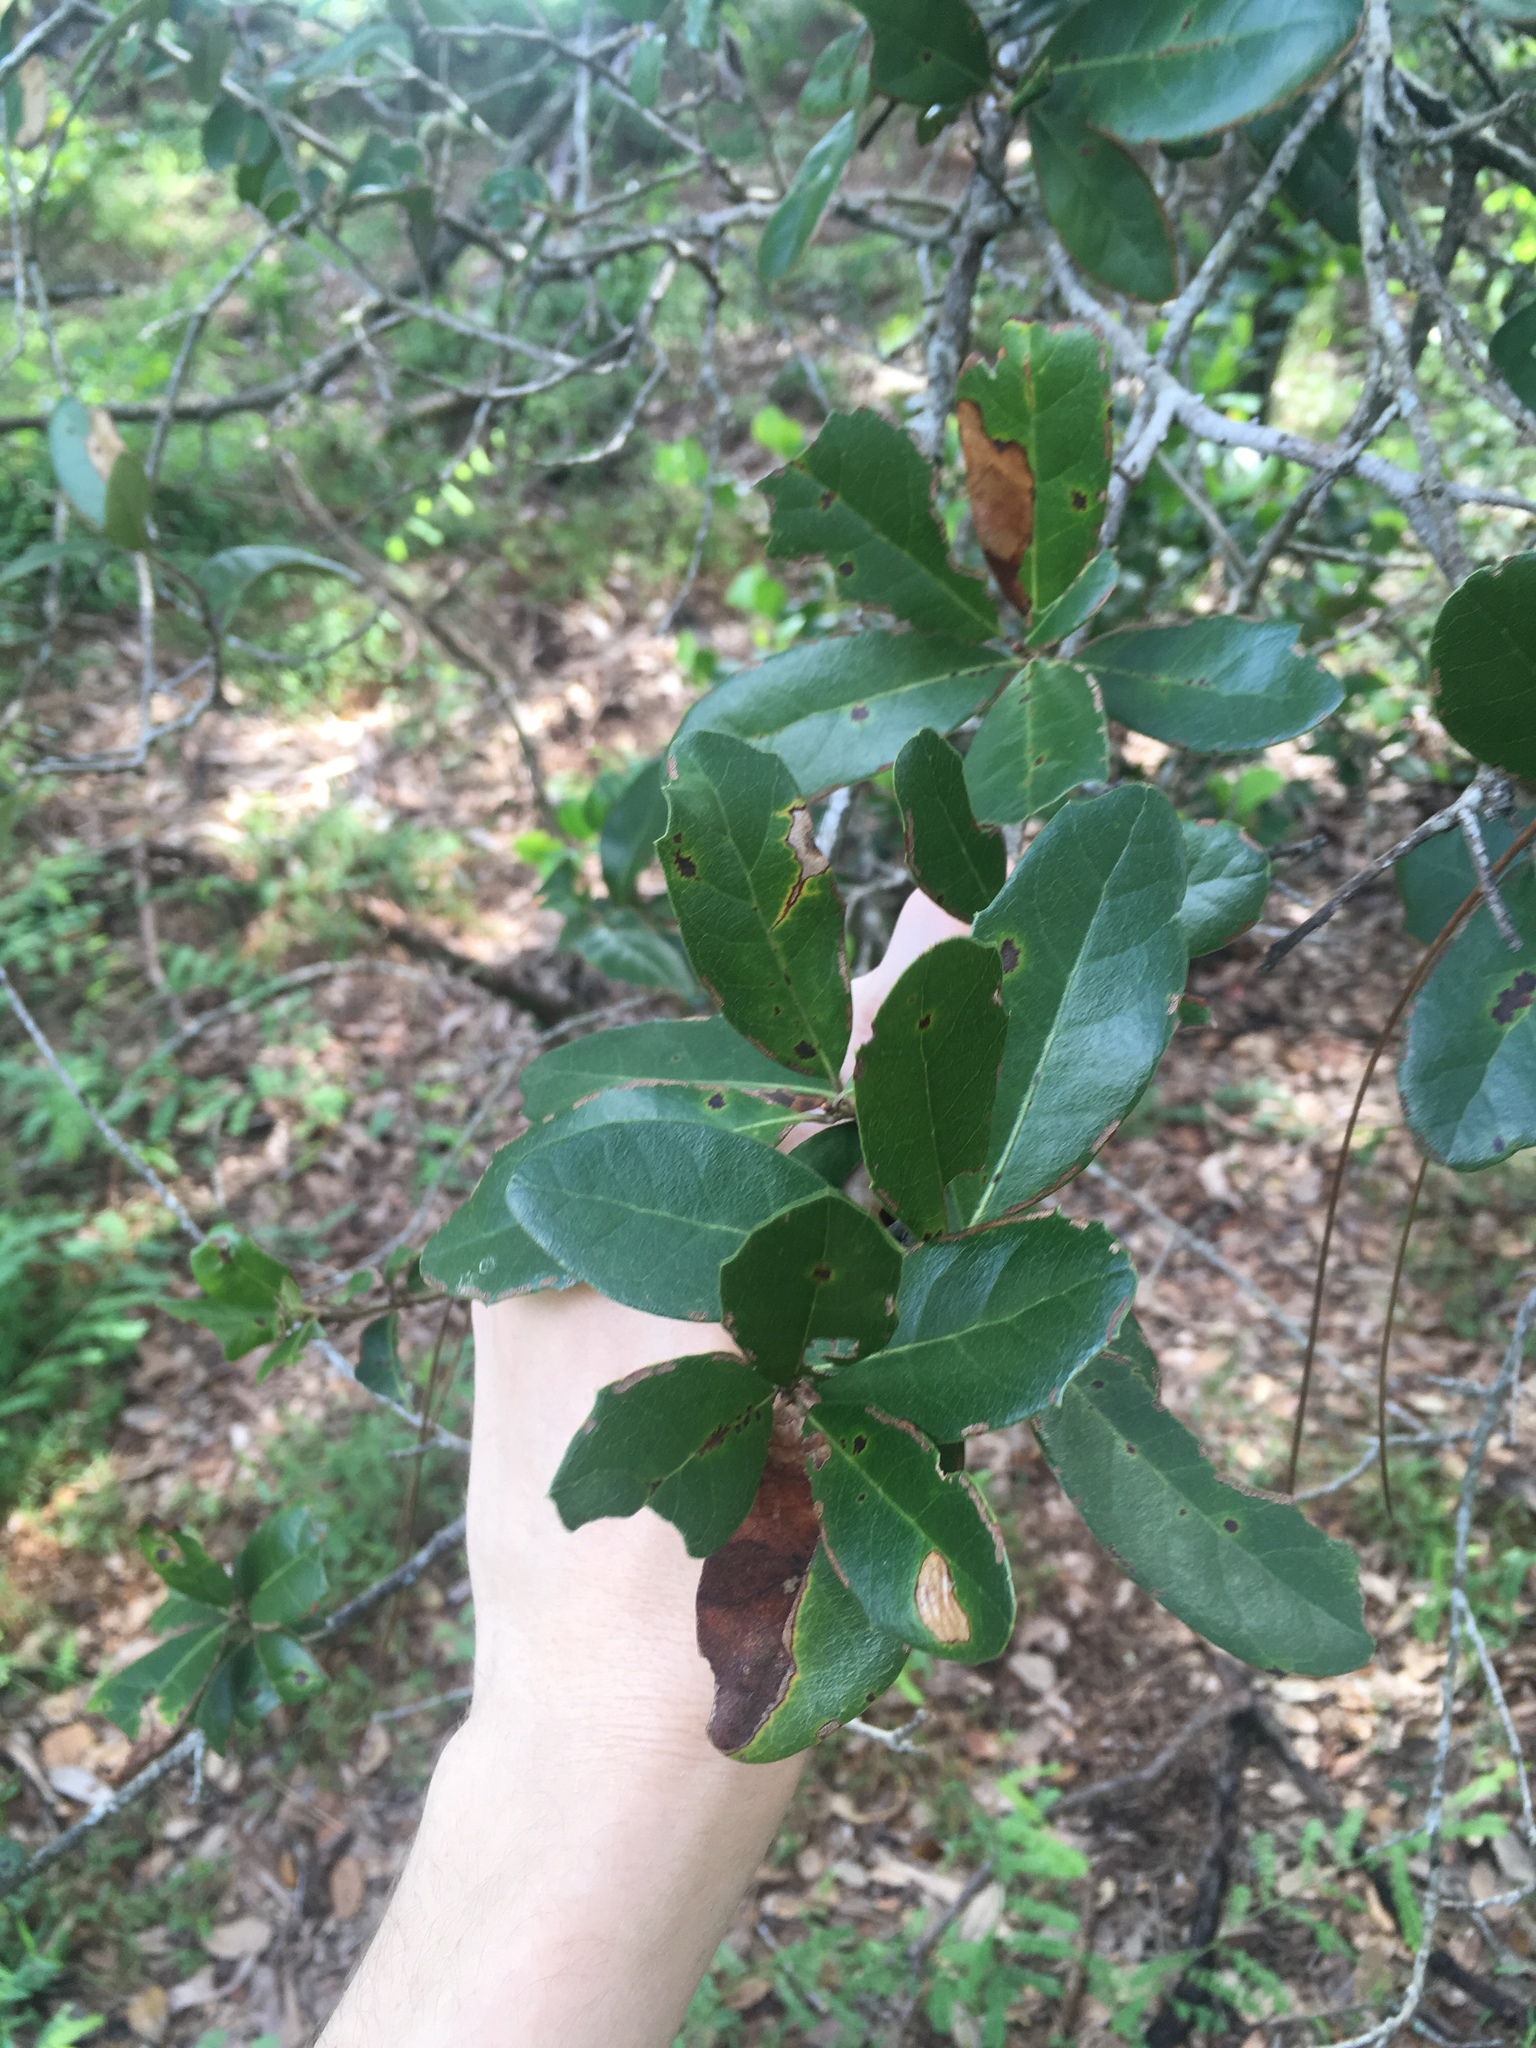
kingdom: Plantae
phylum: Tracheophyta
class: Magnoliopsida
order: Fagales
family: Fagaceae
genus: Quercus
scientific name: Quercus virginiana
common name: Southern live oak
